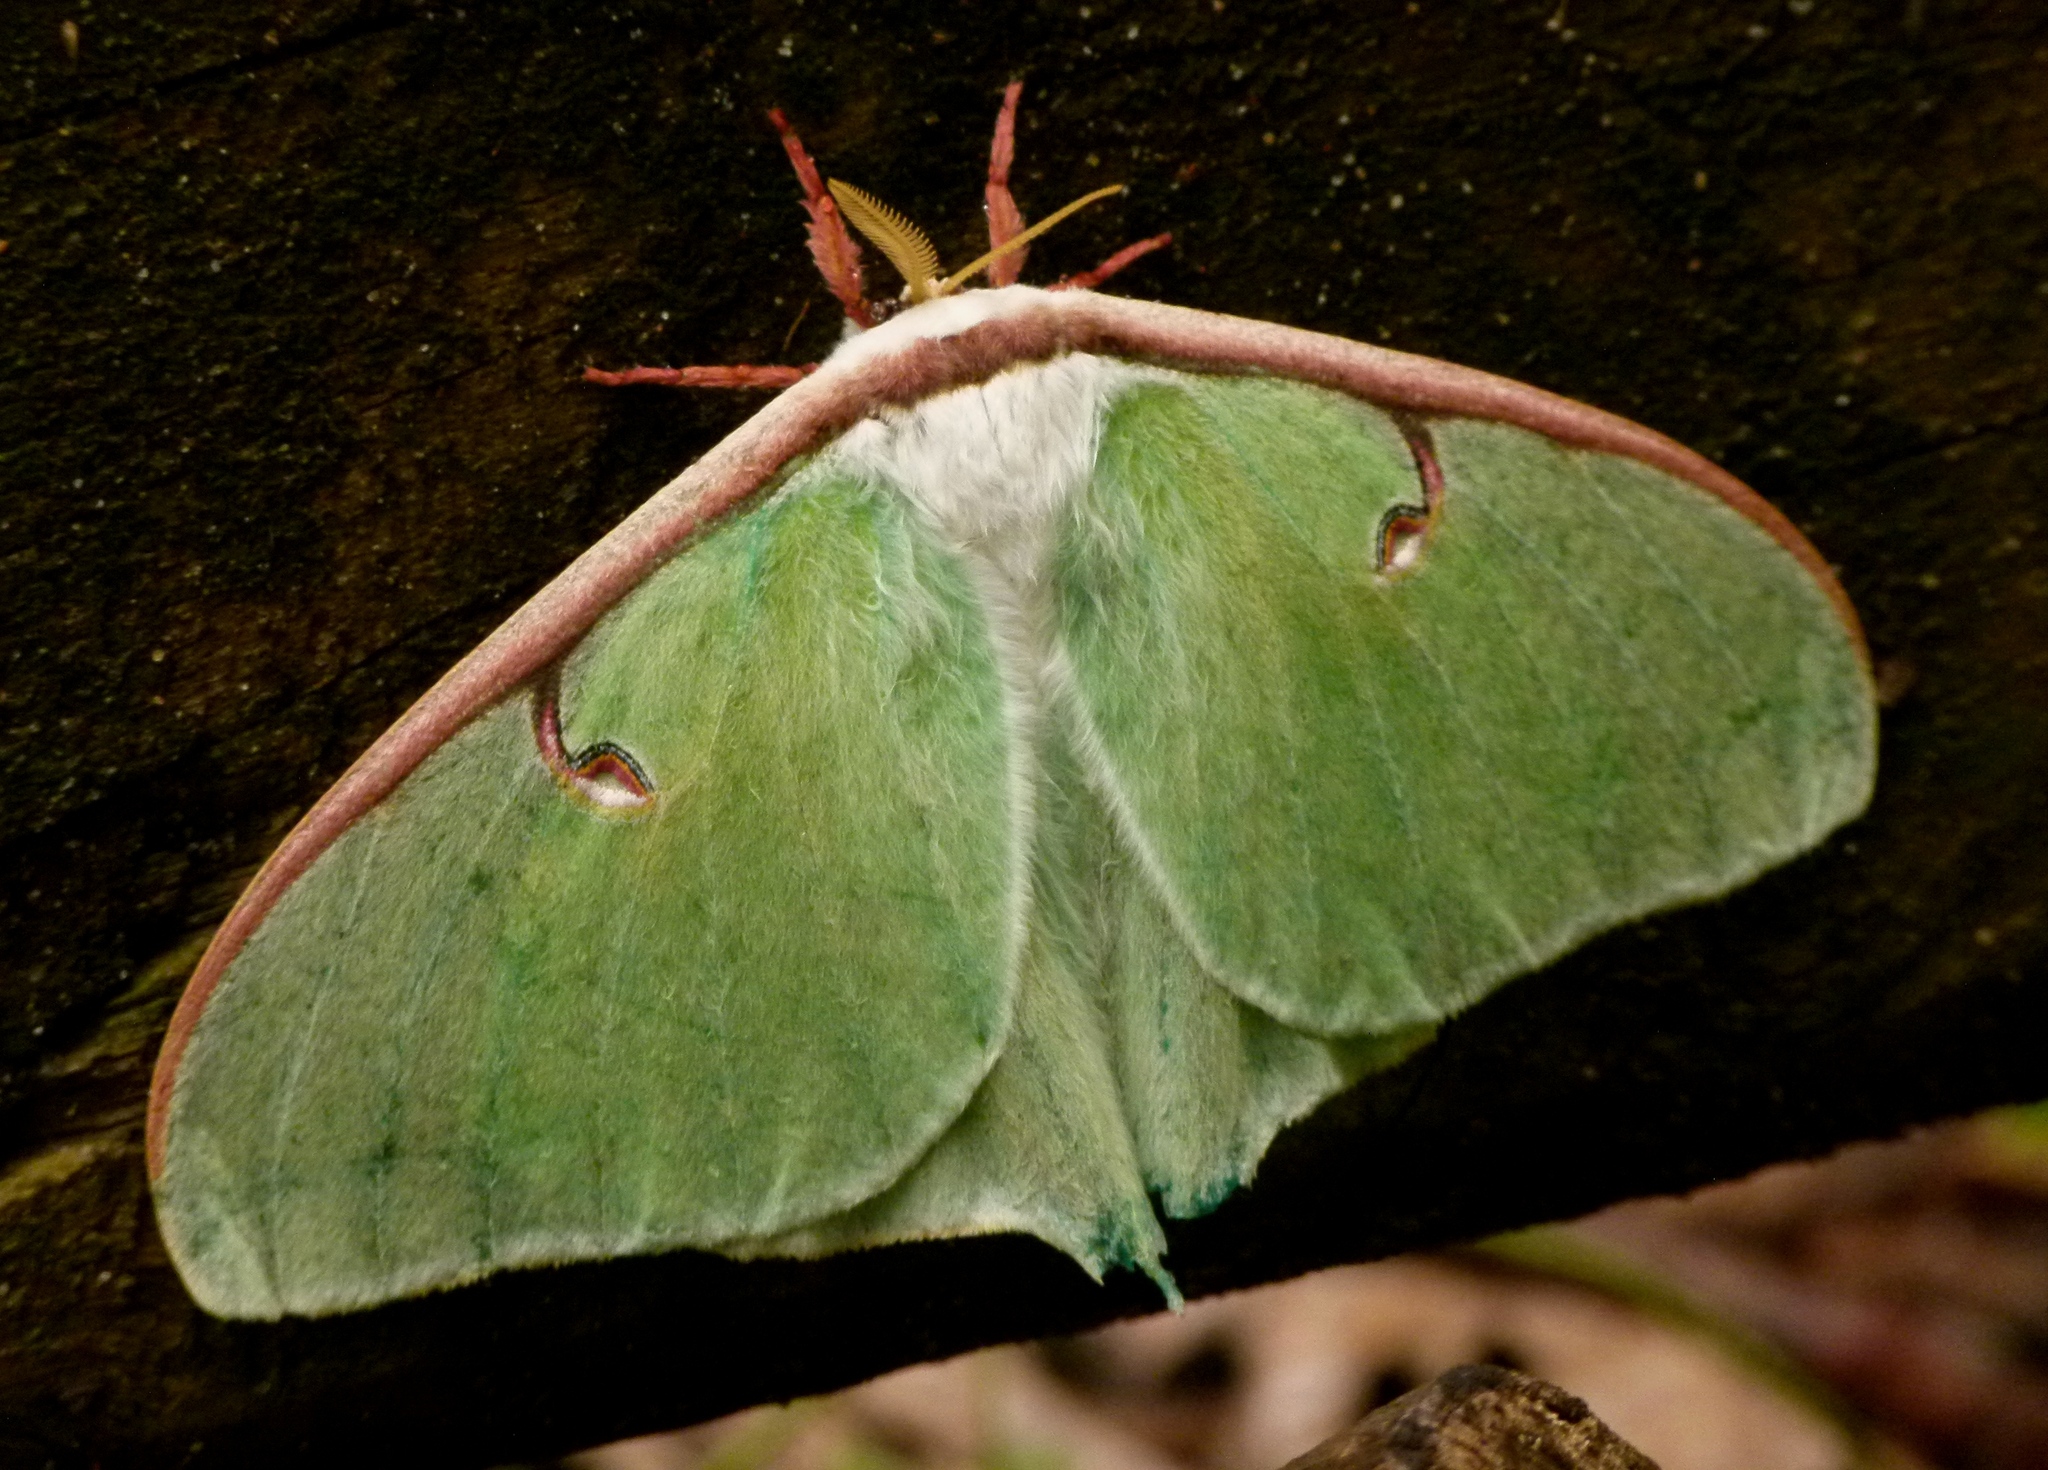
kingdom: Animalia
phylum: Arthropoda
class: Insecta
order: Lepidoptera
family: Saturniidae
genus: Actias
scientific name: Actias luna
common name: Luna moth
